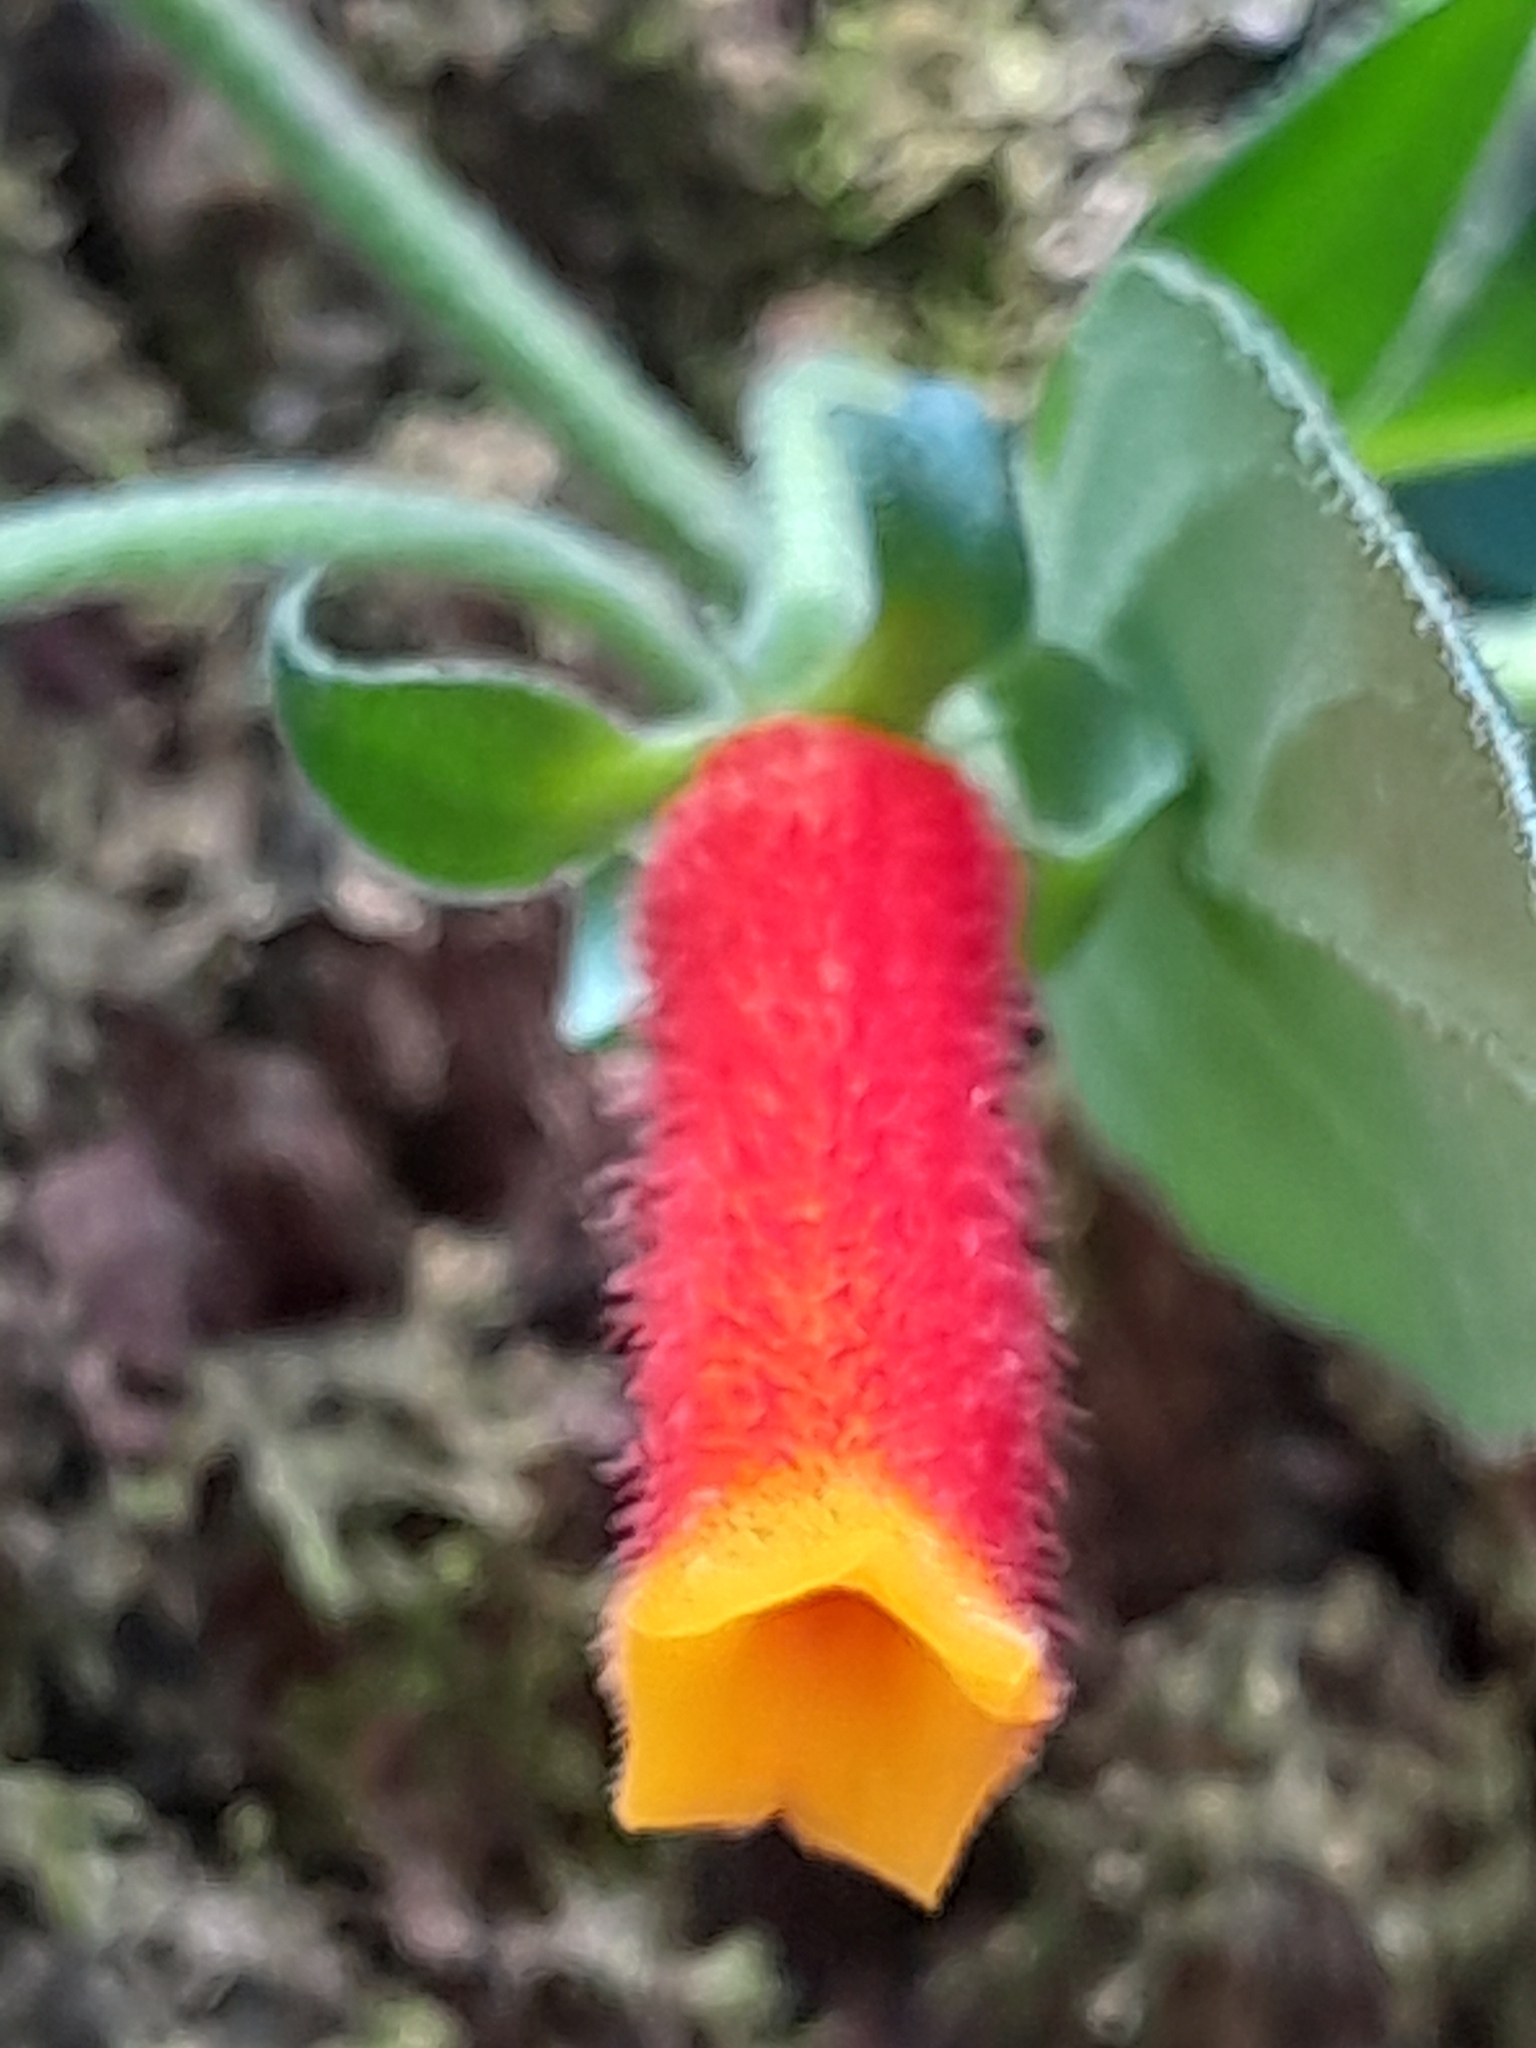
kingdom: Plantae
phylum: Tracheophyta
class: Magnoliopsida
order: Gentianales
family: Rubiaceae
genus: Manettia
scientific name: Manettia paraguariensis
